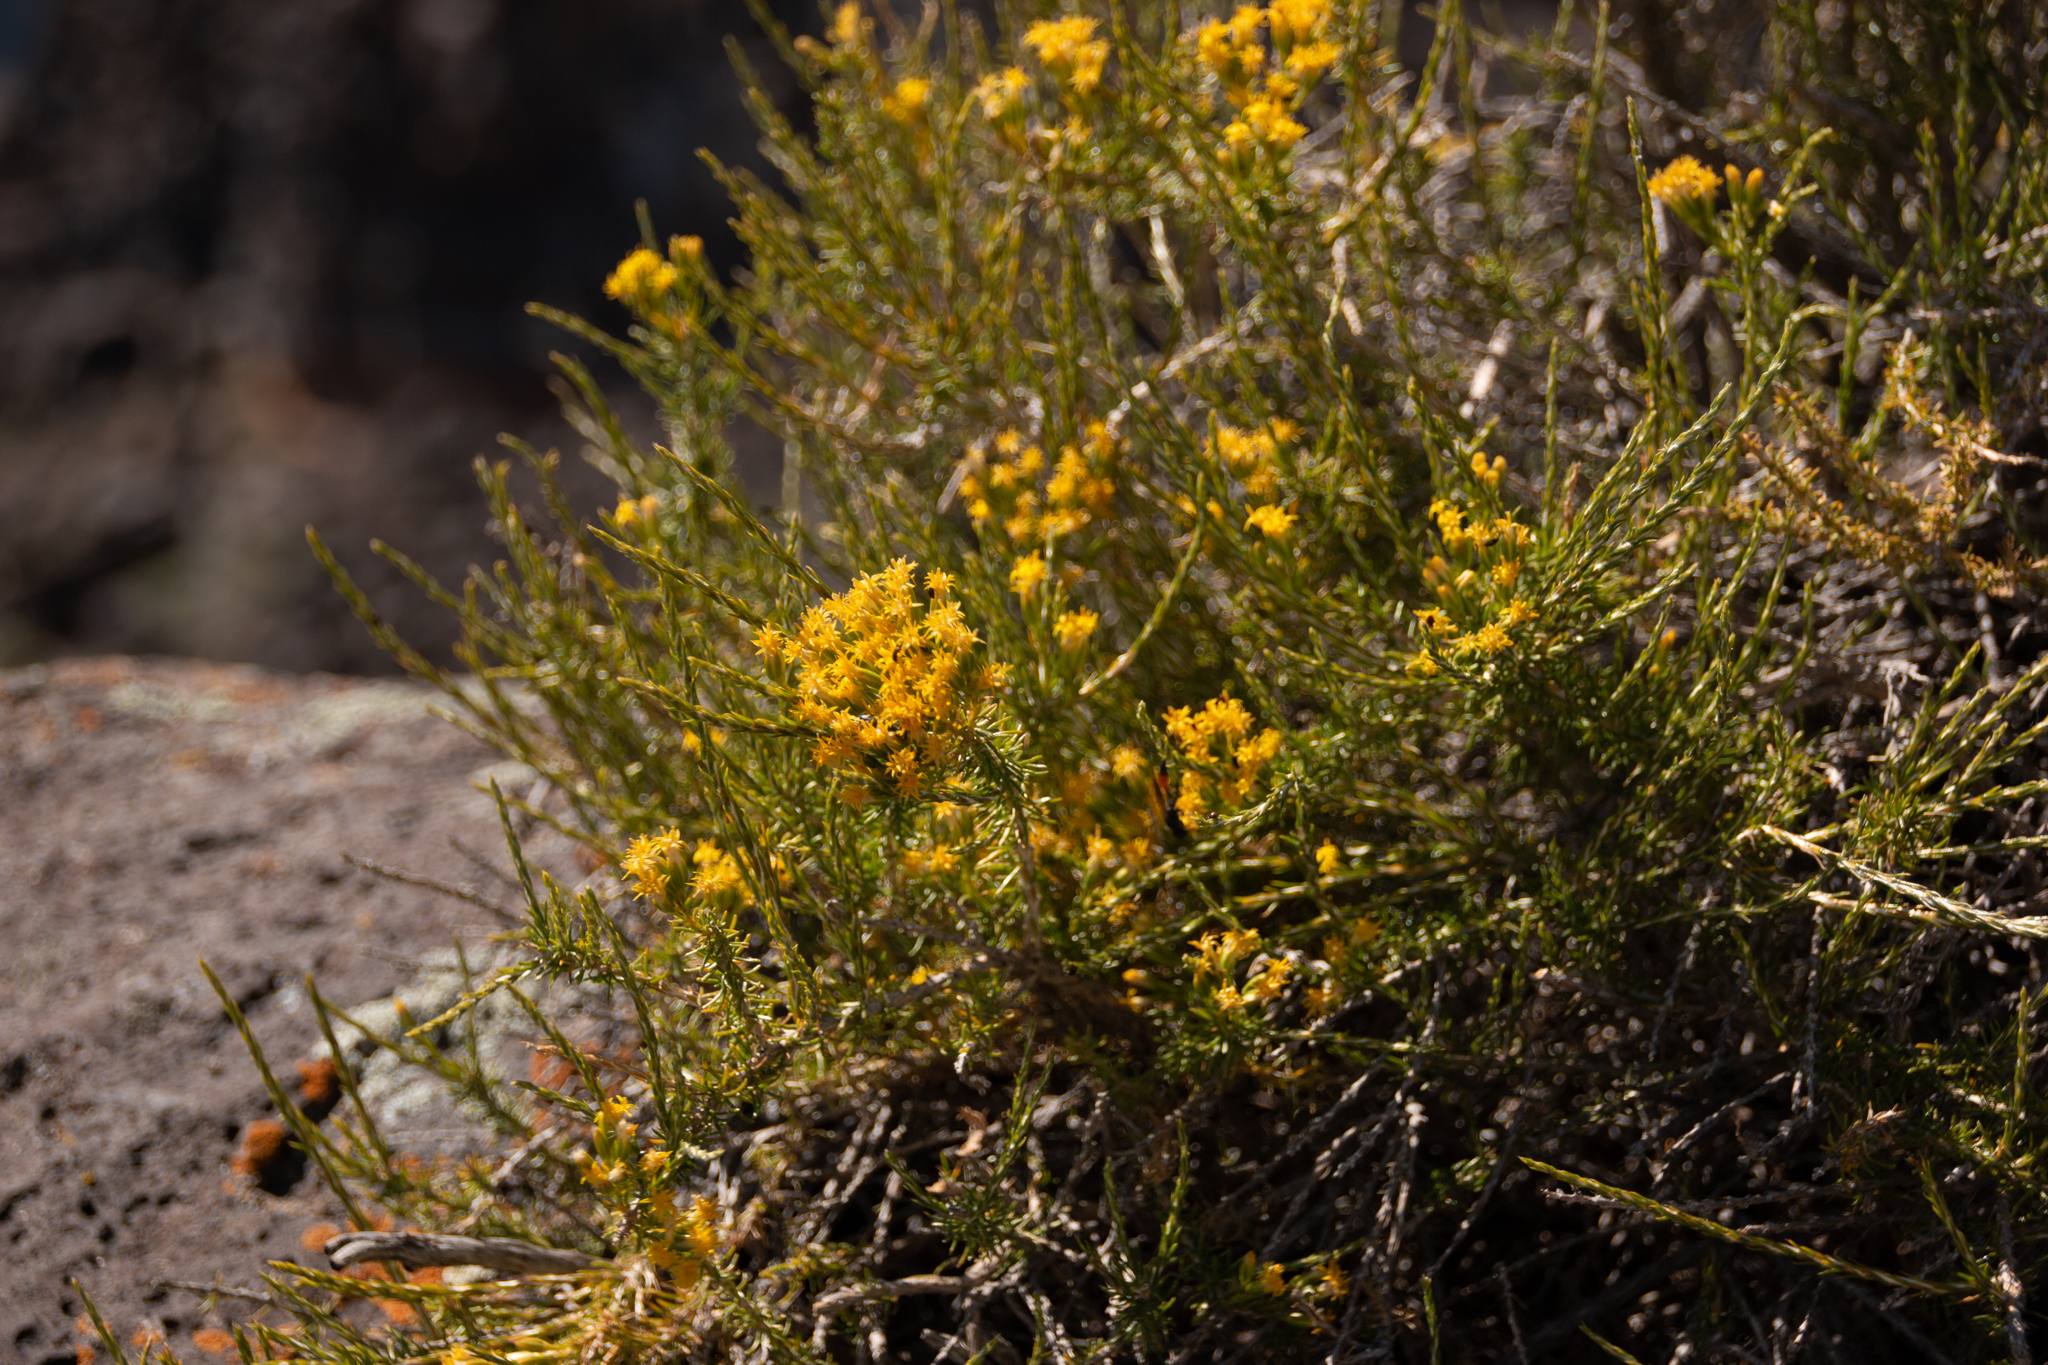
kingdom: Plantae
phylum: Tracheophyta
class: Magnoliopsida
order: Asterales
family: Asteraceae
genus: Tetradymia
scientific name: Tetradymia glabrata
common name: Smooth tetradymia
